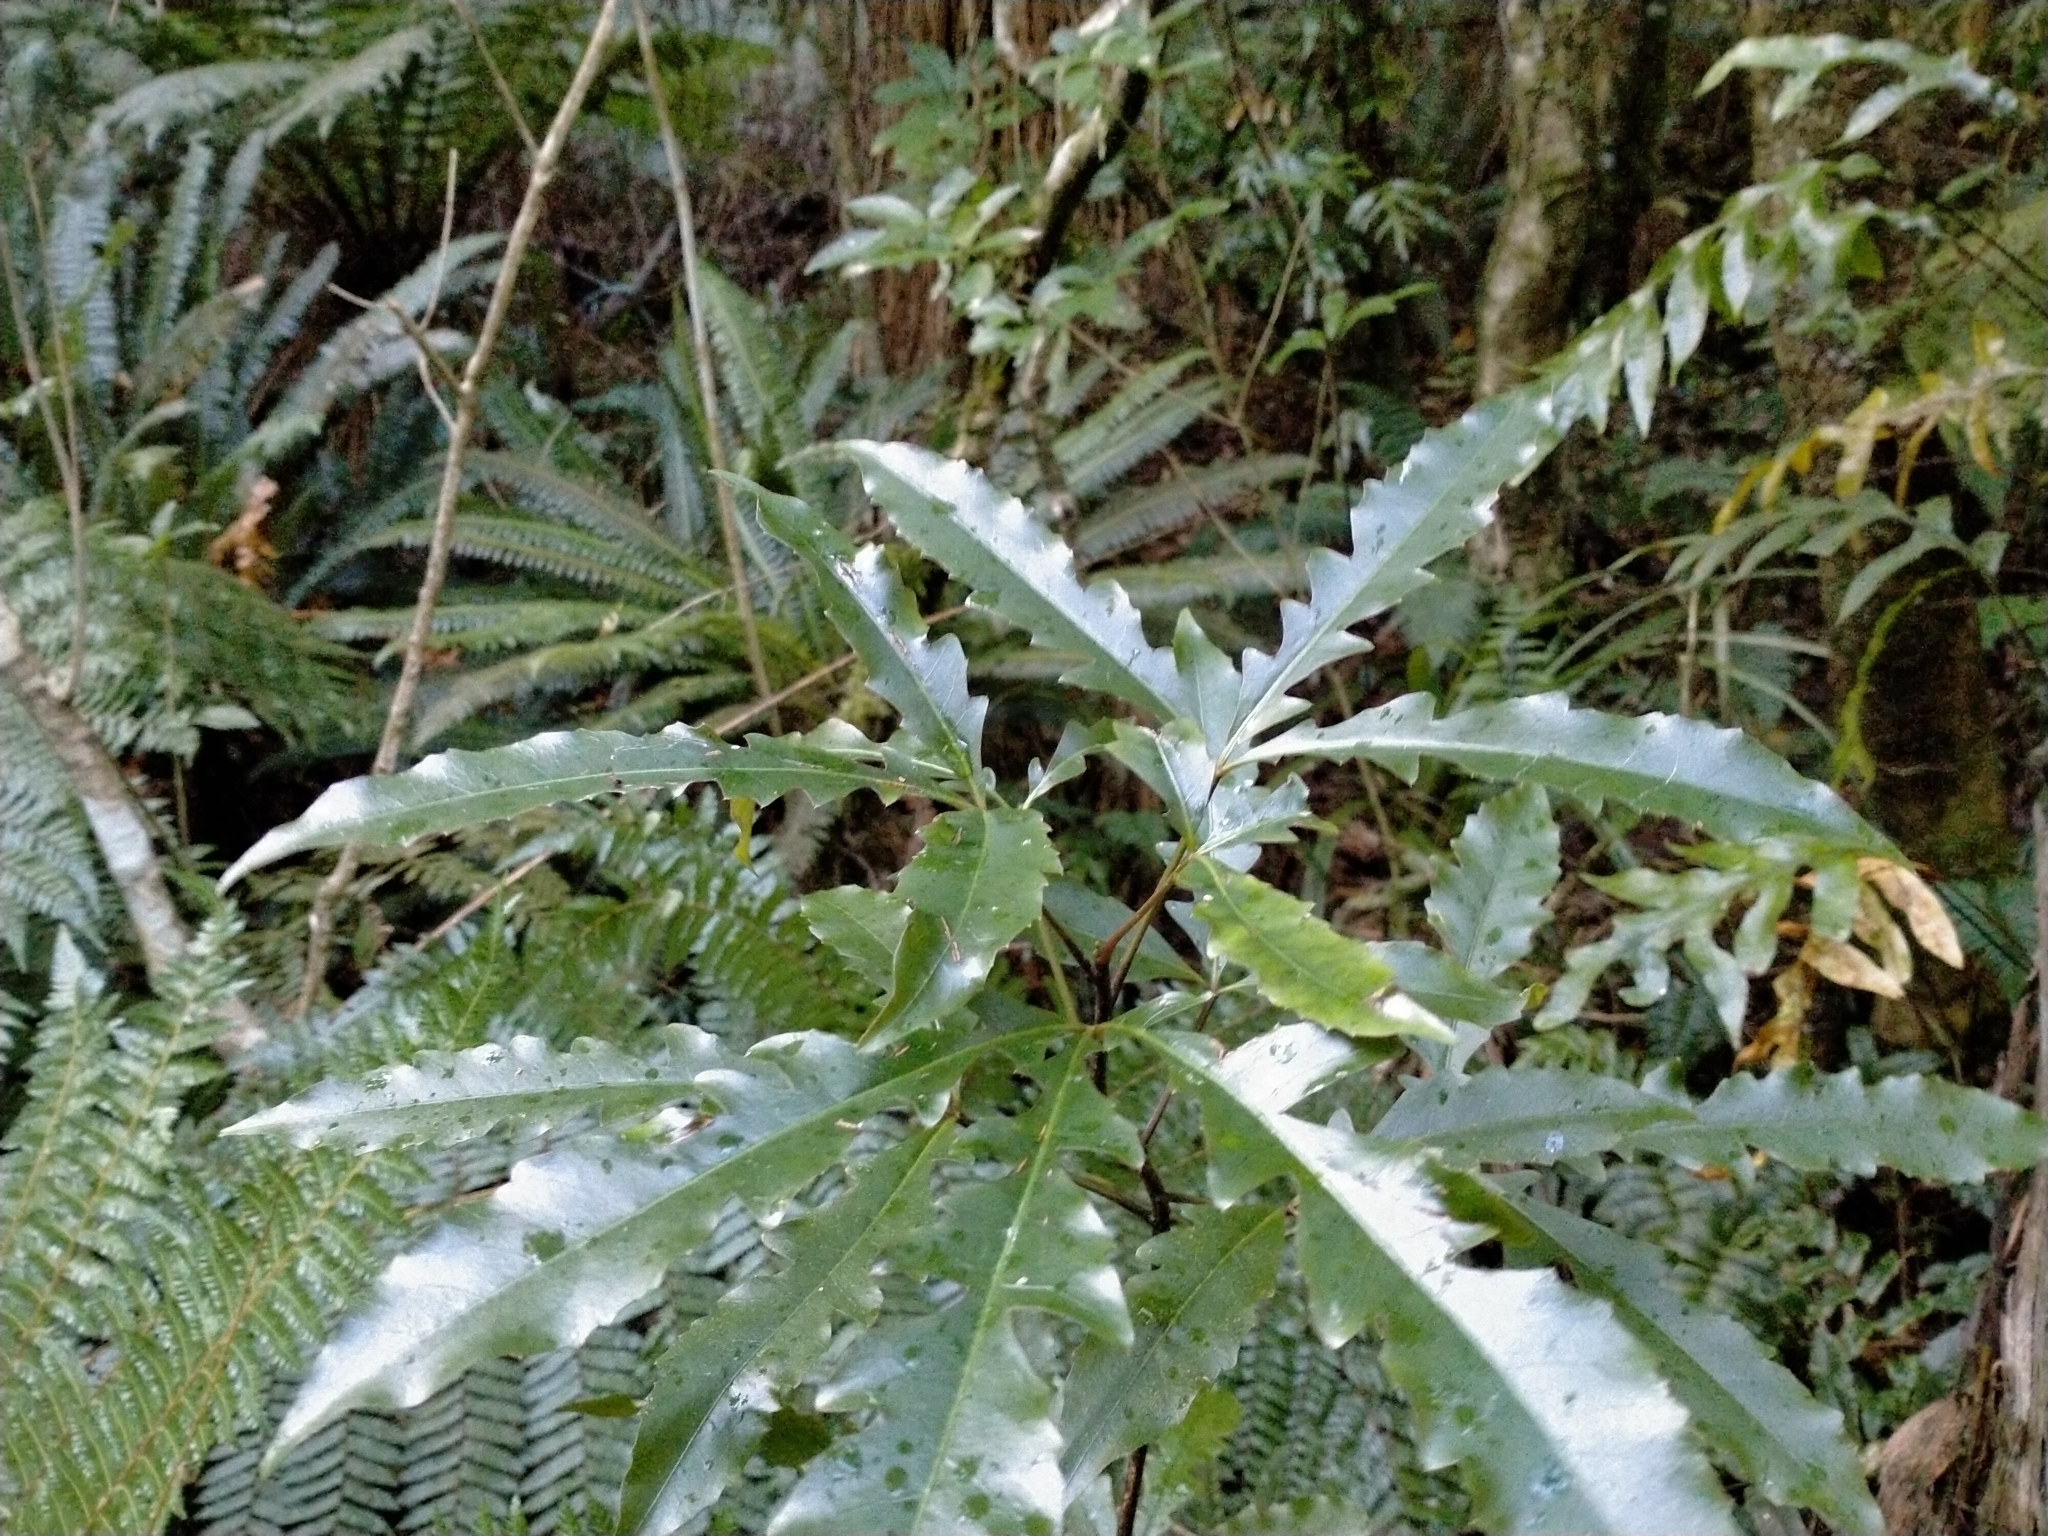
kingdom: Plantae
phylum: Tracheophyta
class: Magnoliopsida
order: Apiales
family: Araliaceae
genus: Raukaua
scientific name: Raukaua edgerleyi
